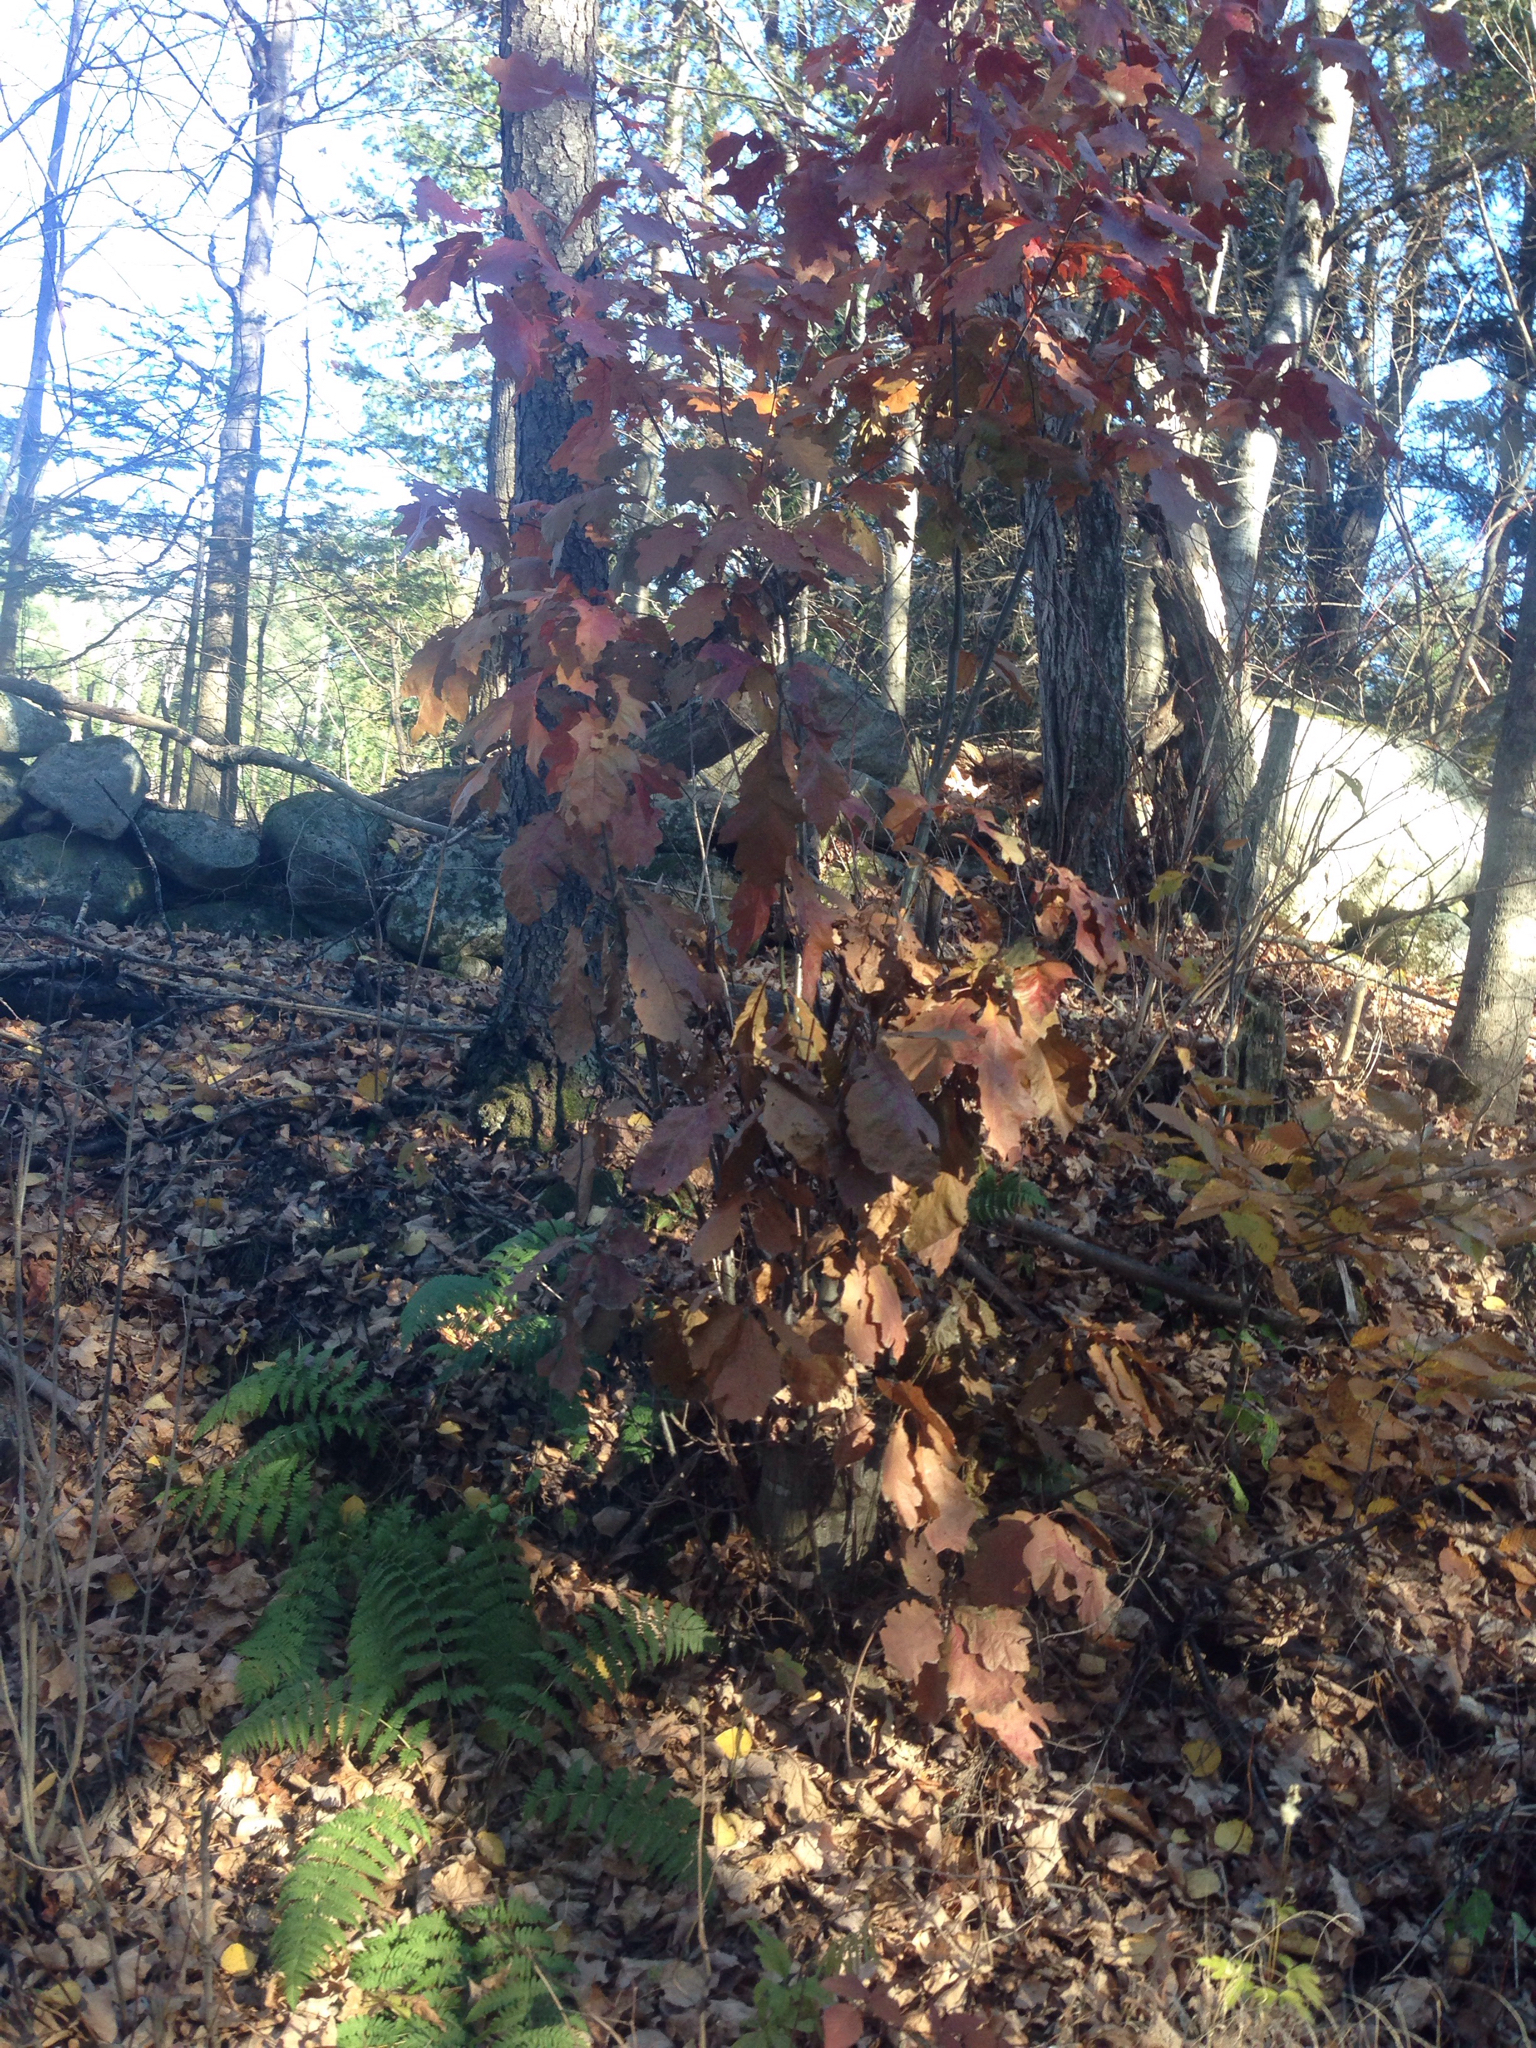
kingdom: Plantae
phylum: Tracheophyta
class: Magnoliopsida
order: Fagales
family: Fagaceae
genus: Quercus
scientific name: Quercus rubra
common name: Red oak
